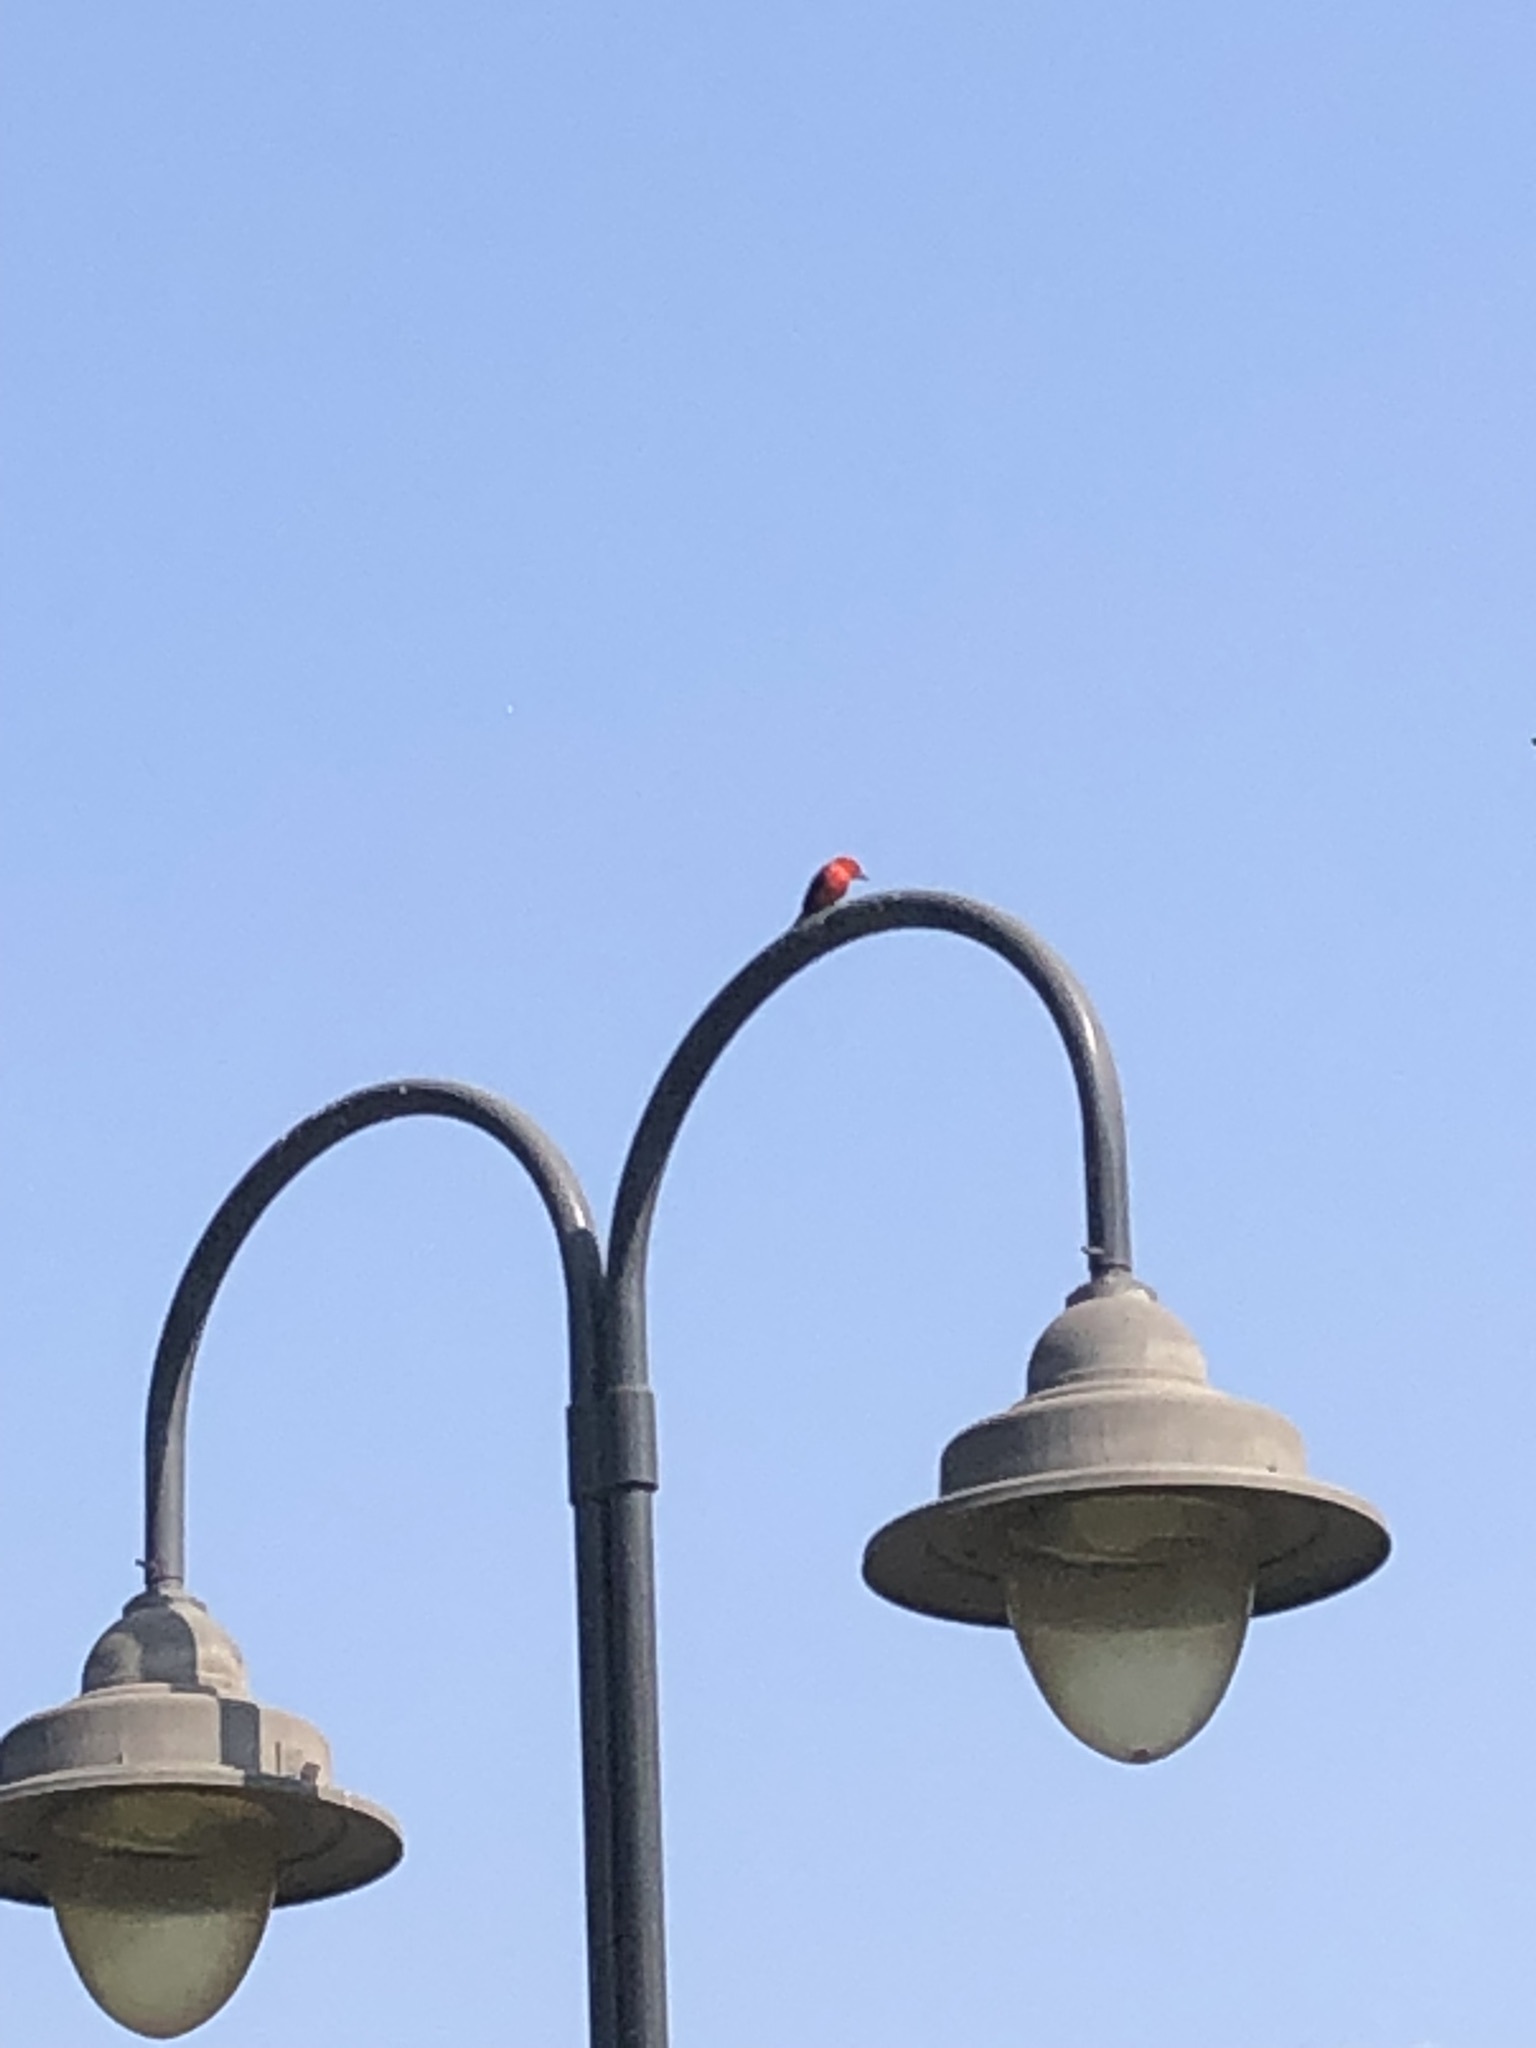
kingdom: Animalia
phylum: Chordata
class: Aves
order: Passeriformes
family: Tyrannidae
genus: Pyrocephalus
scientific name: Pyrocephalus rubinus
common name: Vermilion flycatcher
